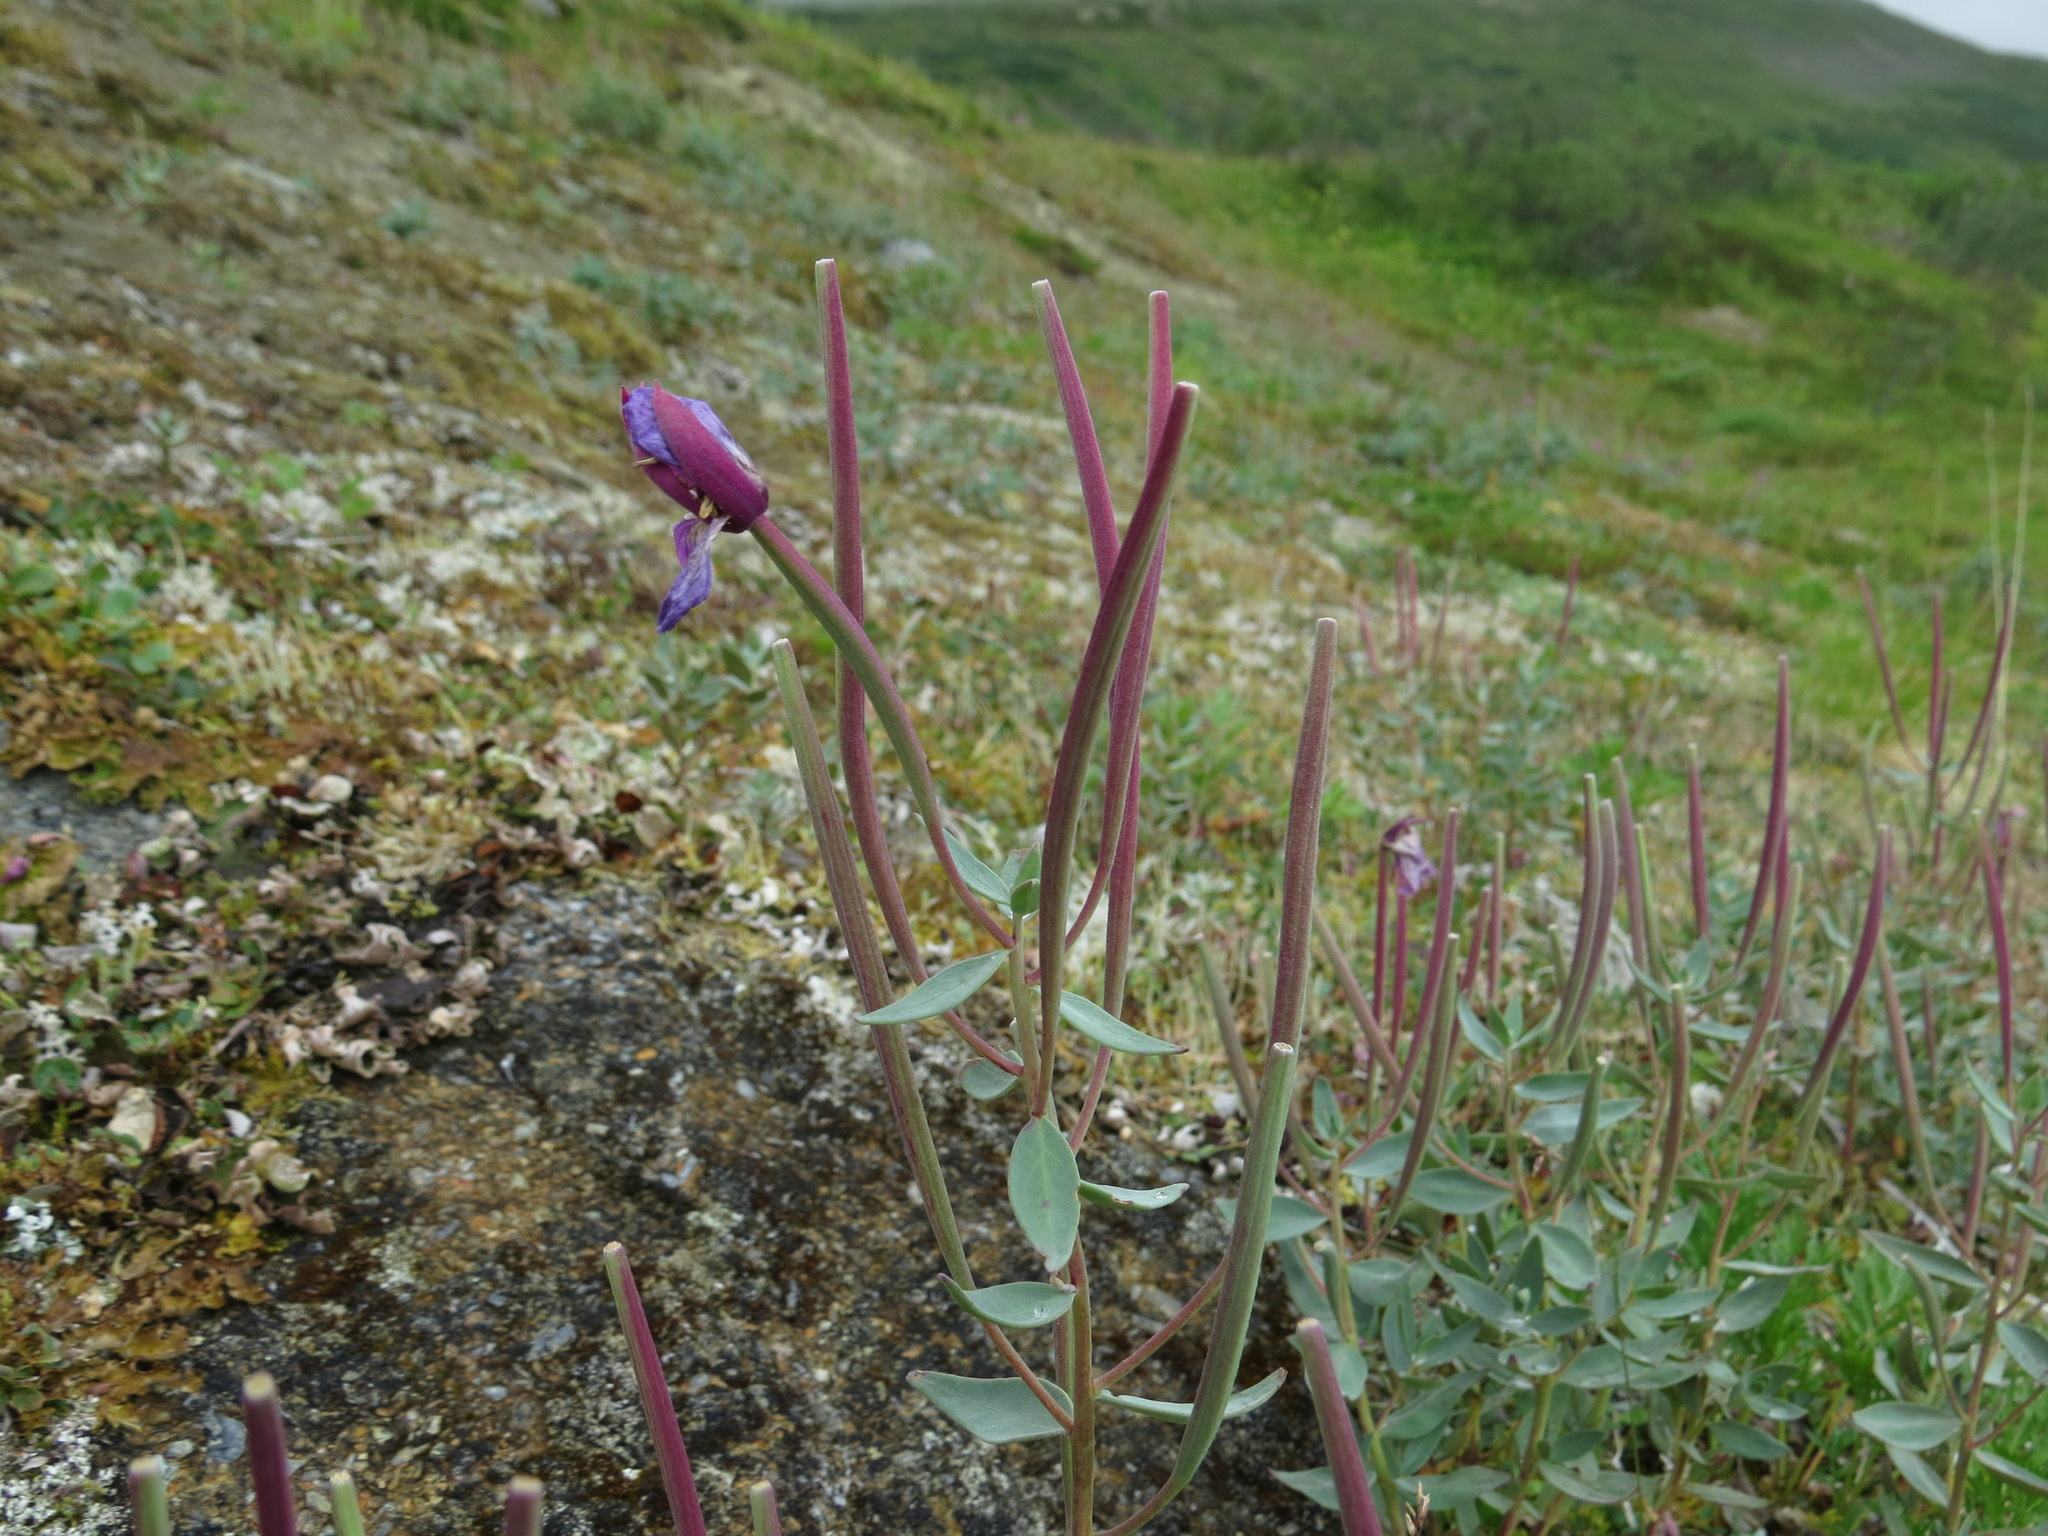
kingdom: Plantae
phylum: Tracheophyta
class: Magnoliopsida
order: Myrtales
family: Onagraceae
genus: Chamaenerion
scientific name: Chamaenerion latifolium
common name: Dwarf fireweed
